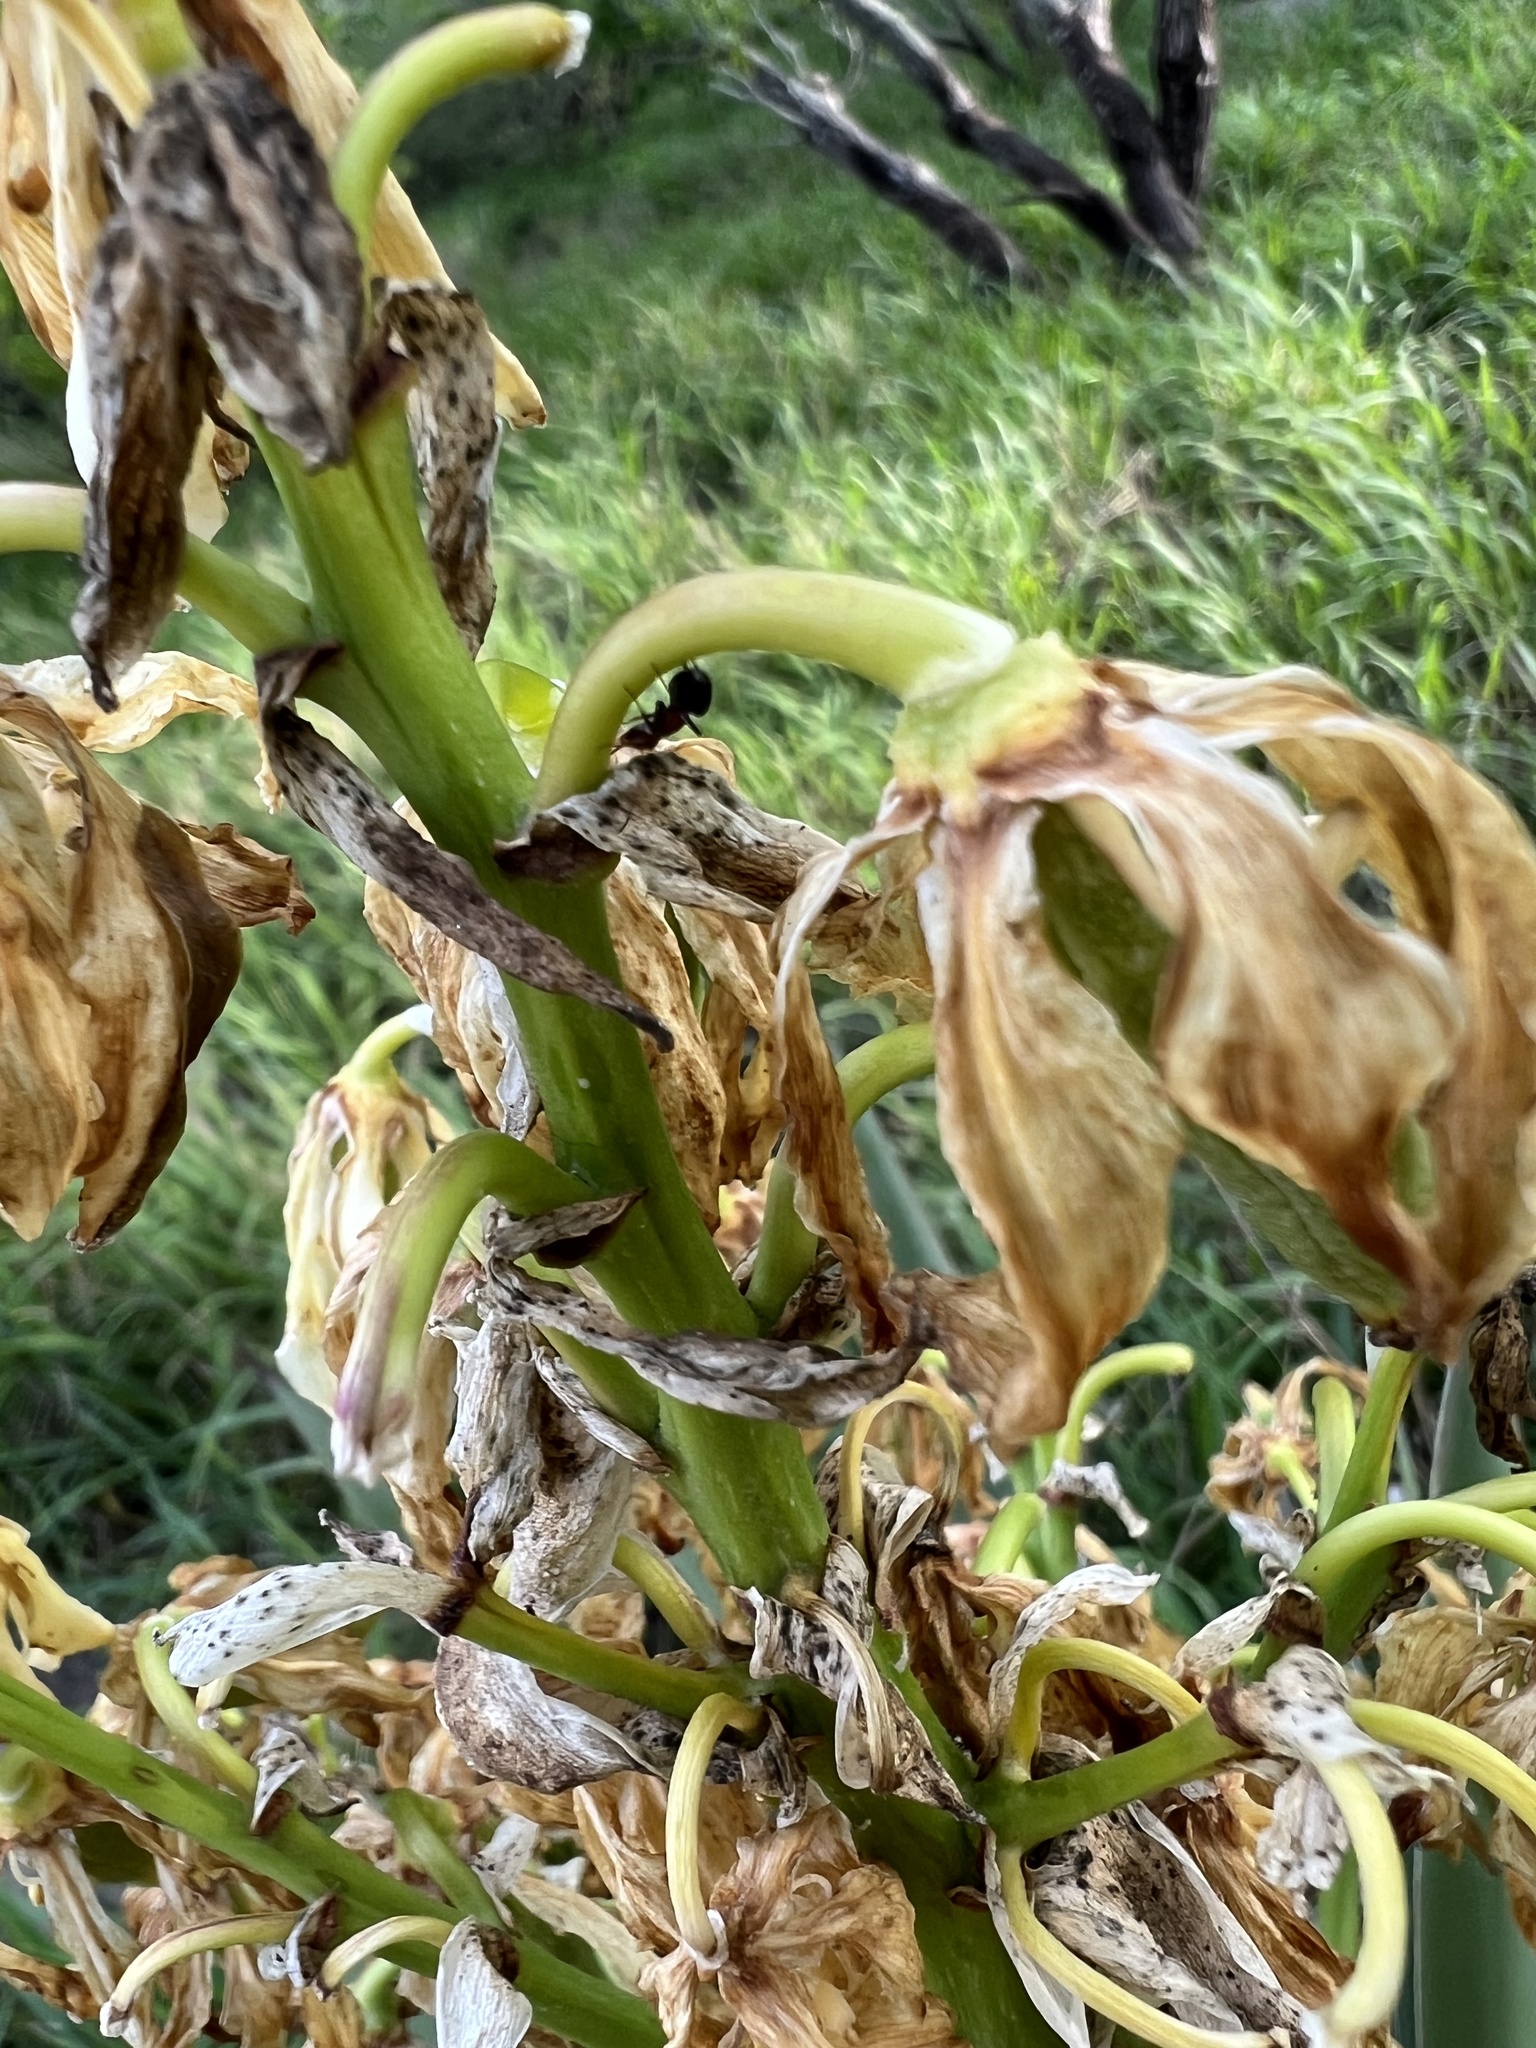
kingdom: Plantae
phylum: Tracheophyta
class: Liliopsida
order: Asparagales
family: Asparagaceae
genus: Yucca
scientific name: Yucca treculiana
